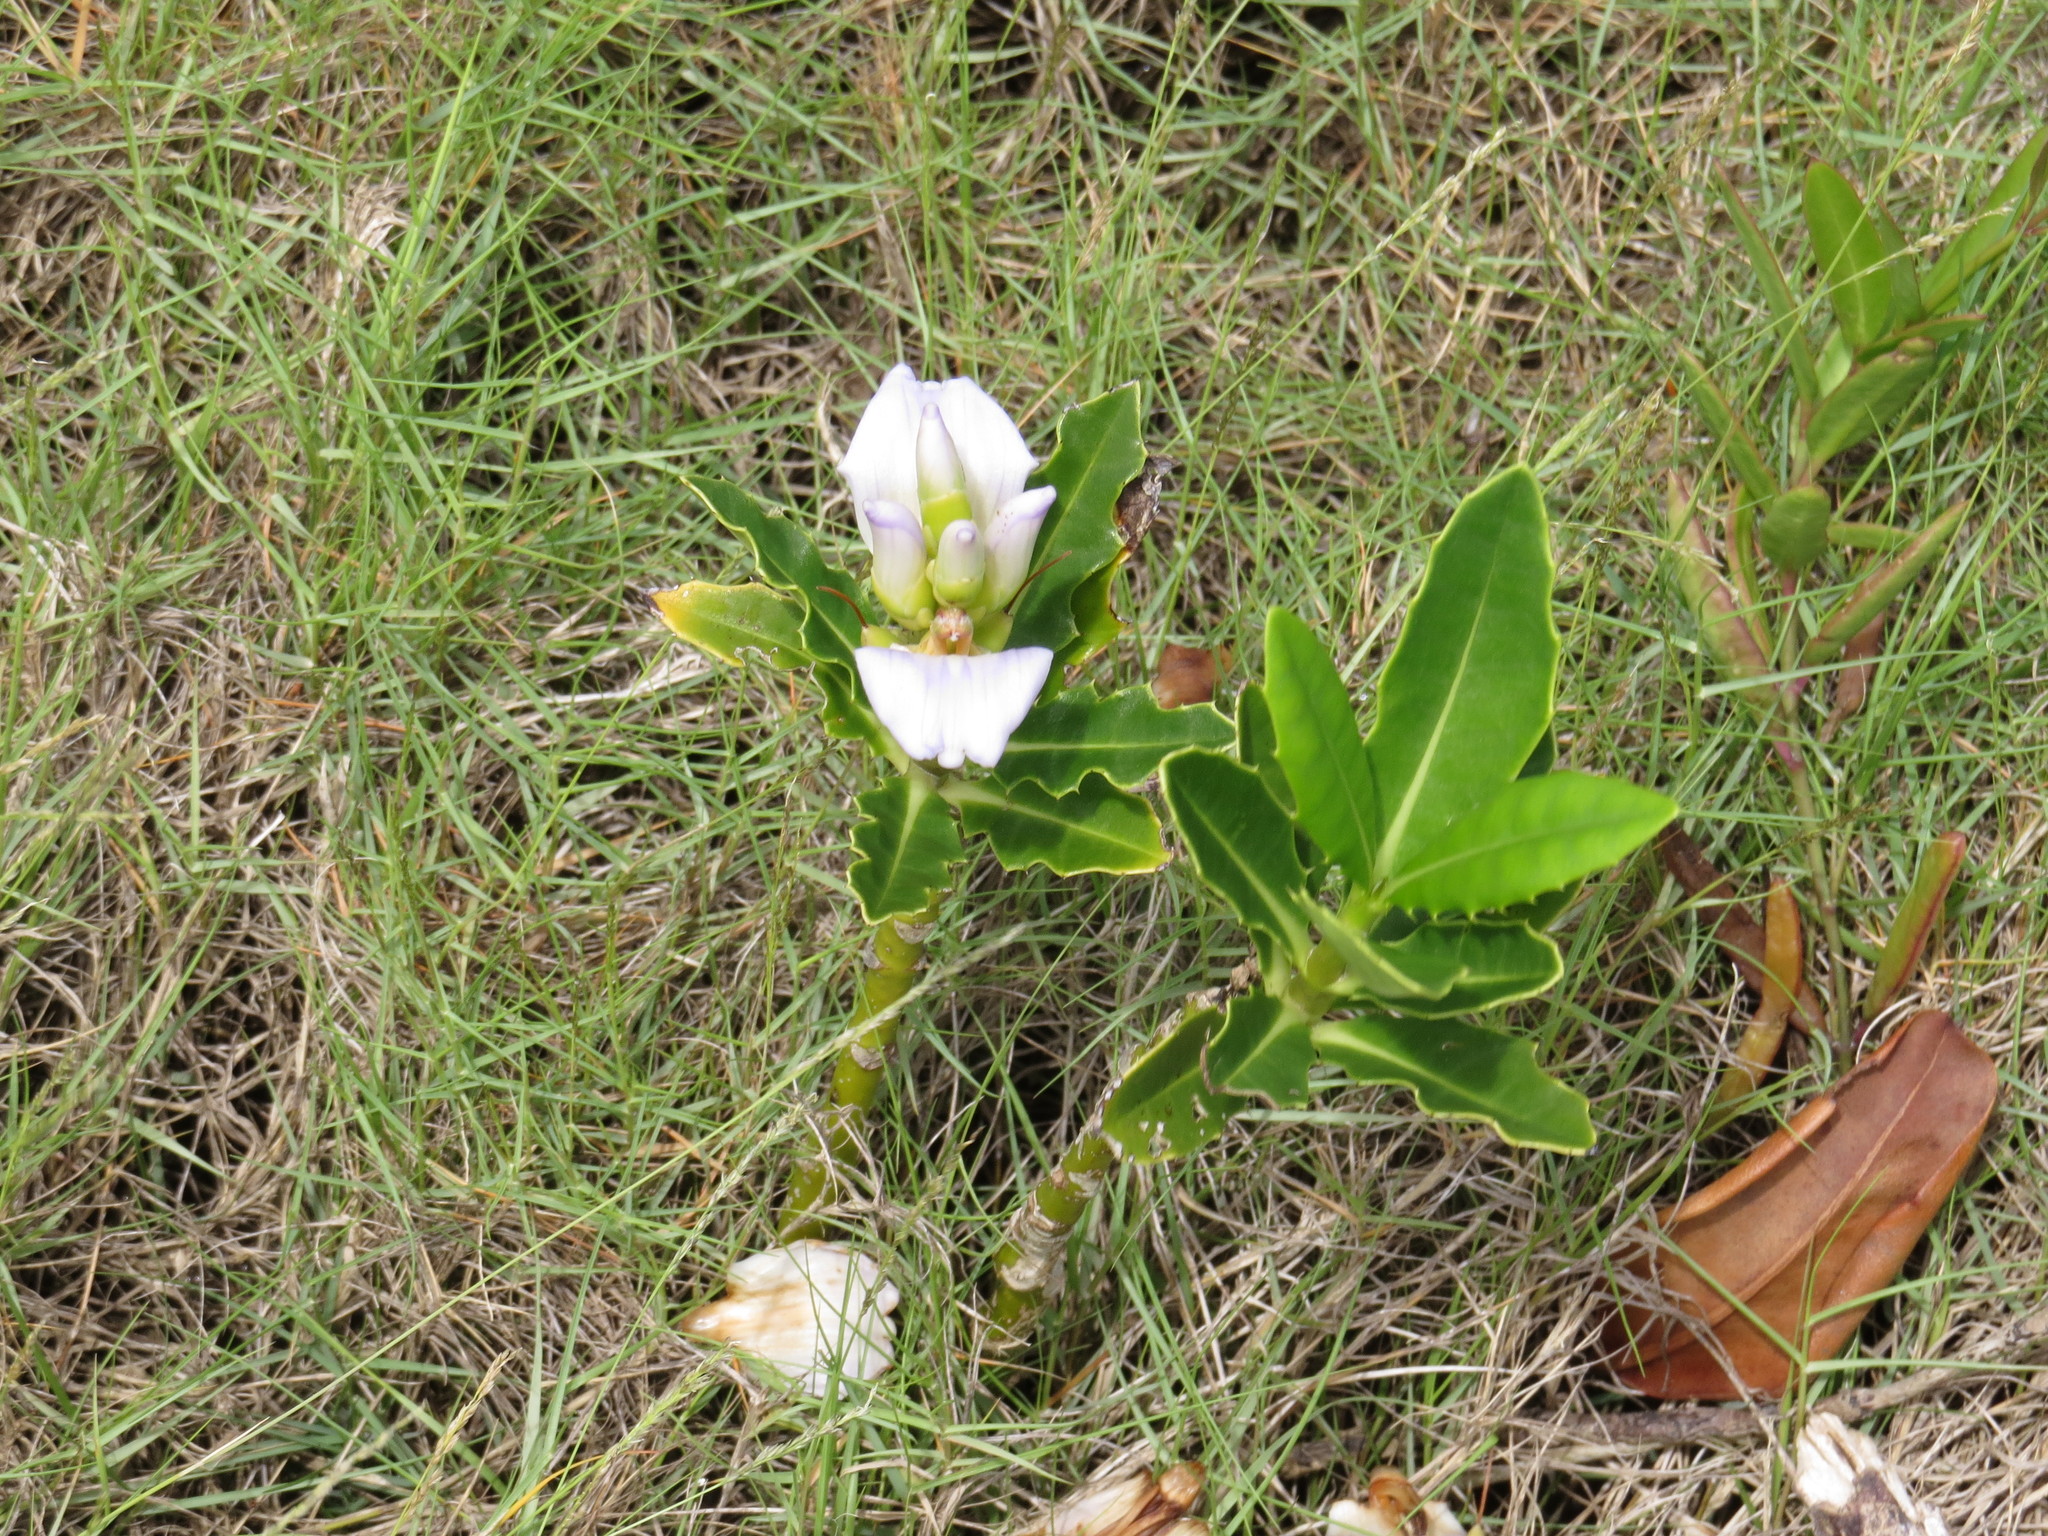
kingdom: Plantae
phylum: Tracheophyta
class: Magnoliopsida
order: Lamiales
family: Acanthaceae
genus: Acanthus
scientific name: Acanthus ilicifolius
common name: Holy mangrove
